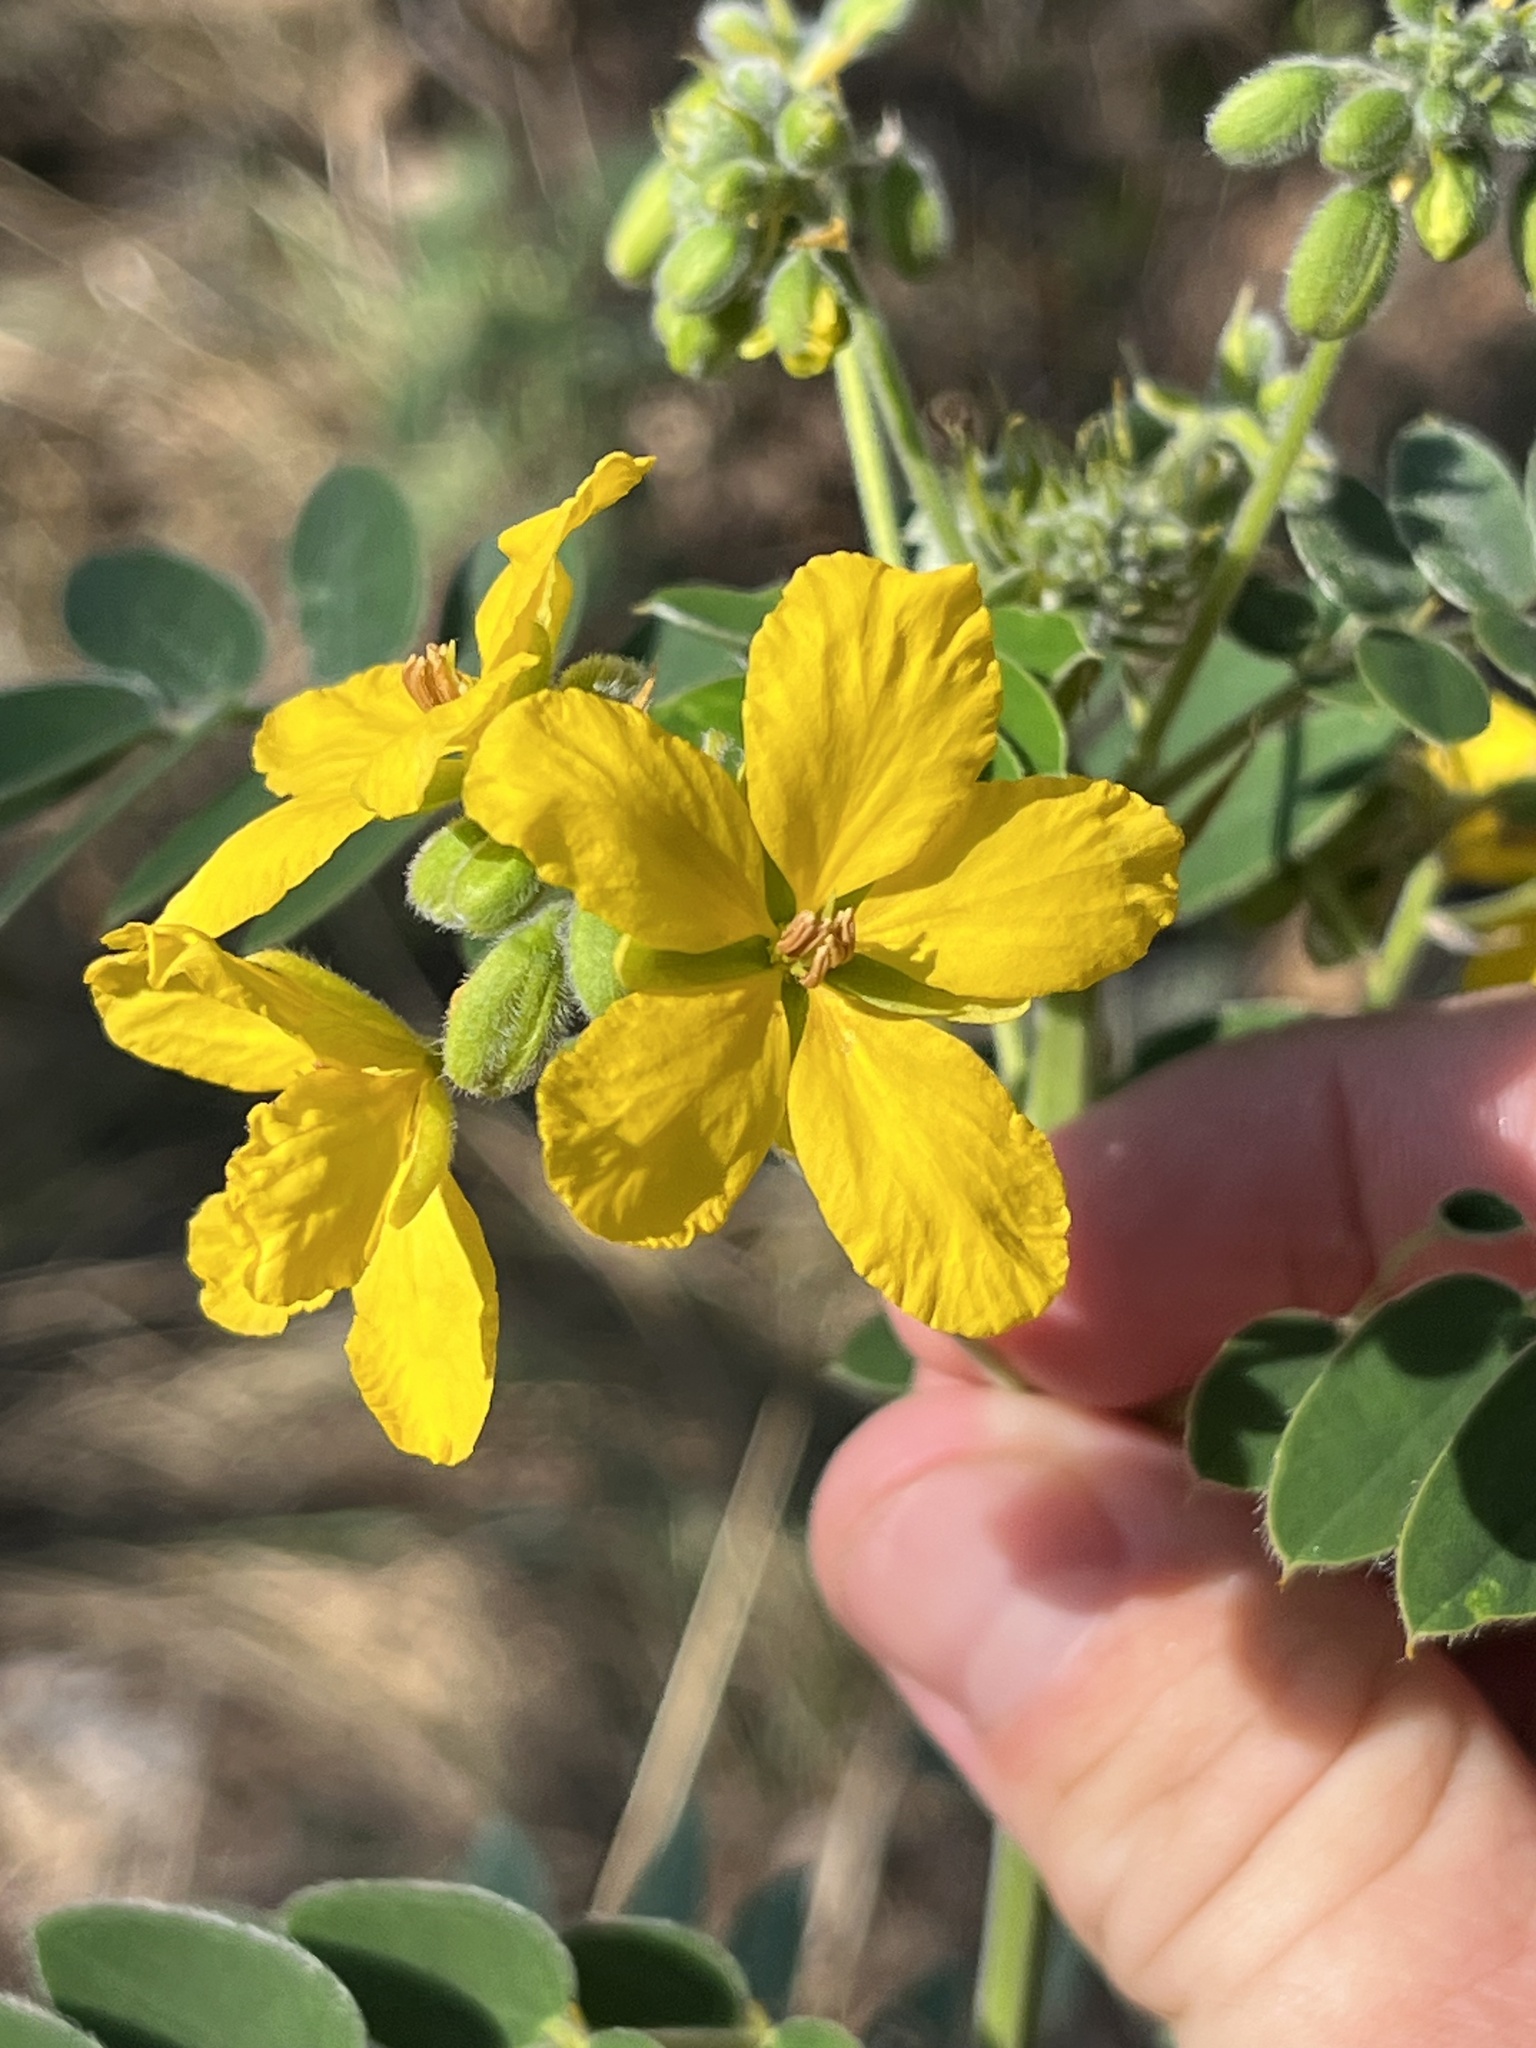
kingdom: Plantae
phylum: Tracheophyta
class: Magnoliopsida
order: Fabales
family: Fabaceae
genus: Senna
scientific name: Senna lindheimeriana
